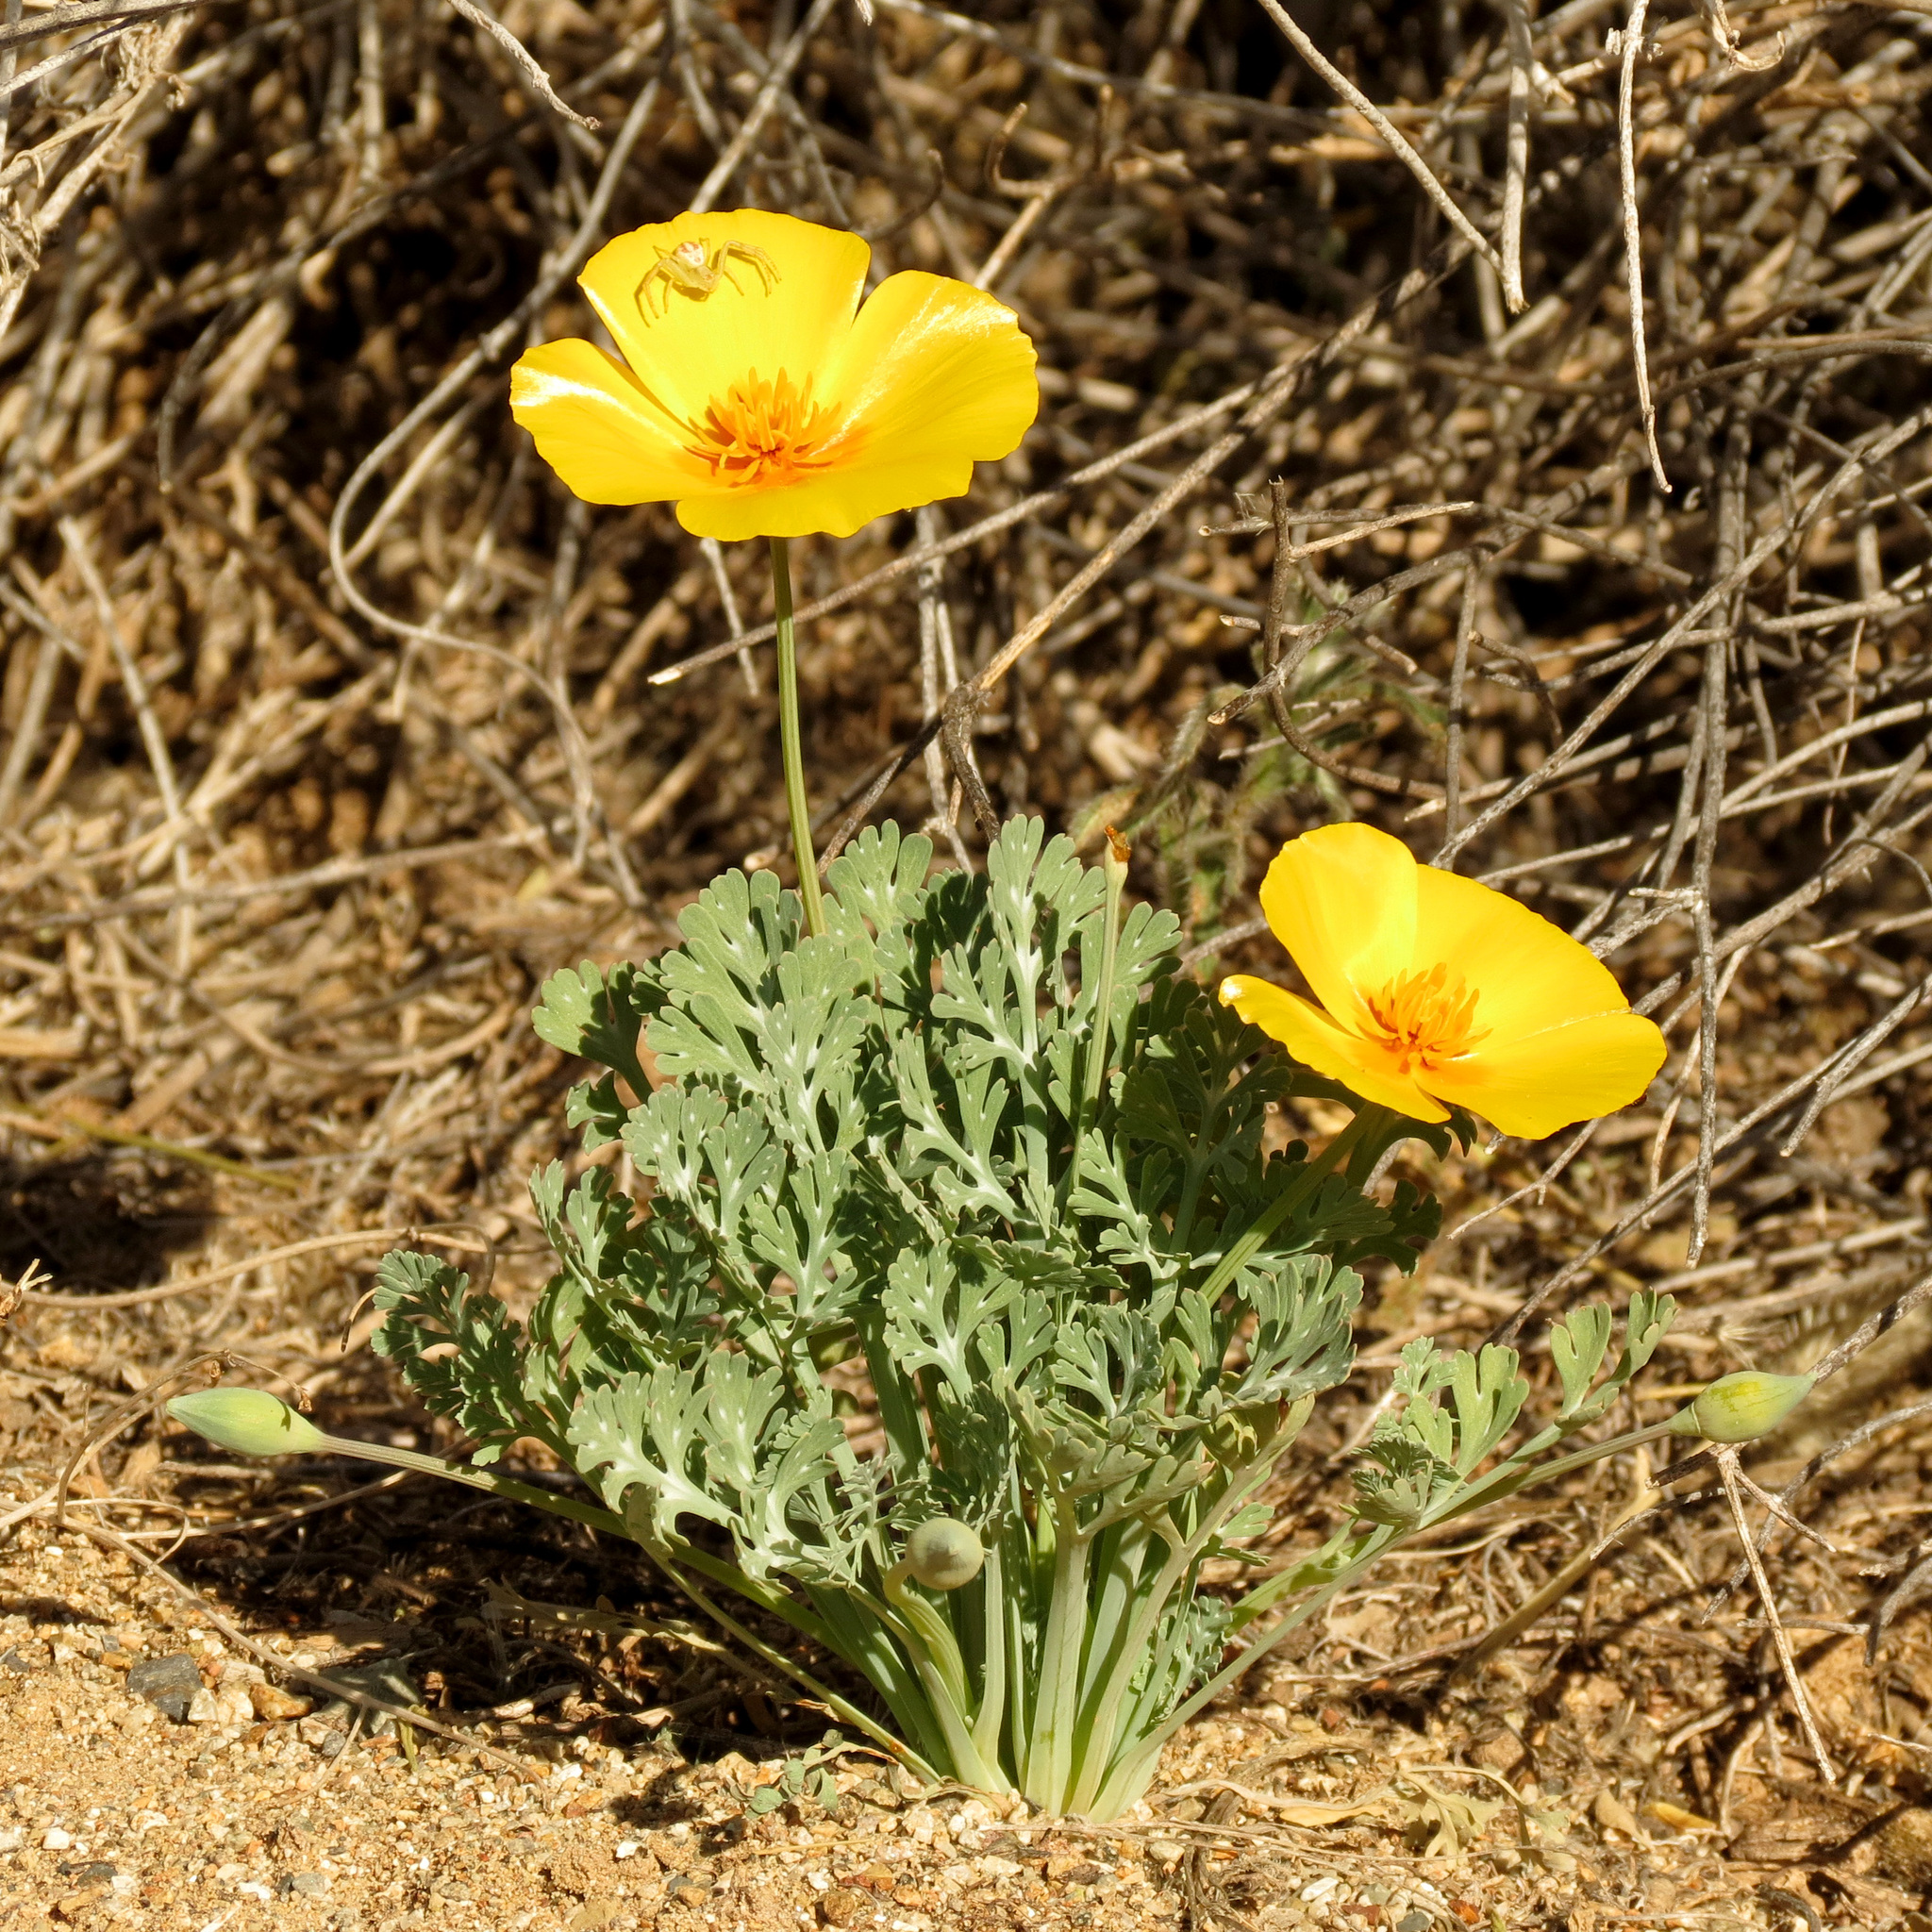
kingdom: Plantae
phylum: Tracheophyta
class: Magnoliopsida
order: Ranunculales
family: Papaveraceae
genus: Eschscholzia
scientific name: Eschscholzia californica
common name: California poppy
